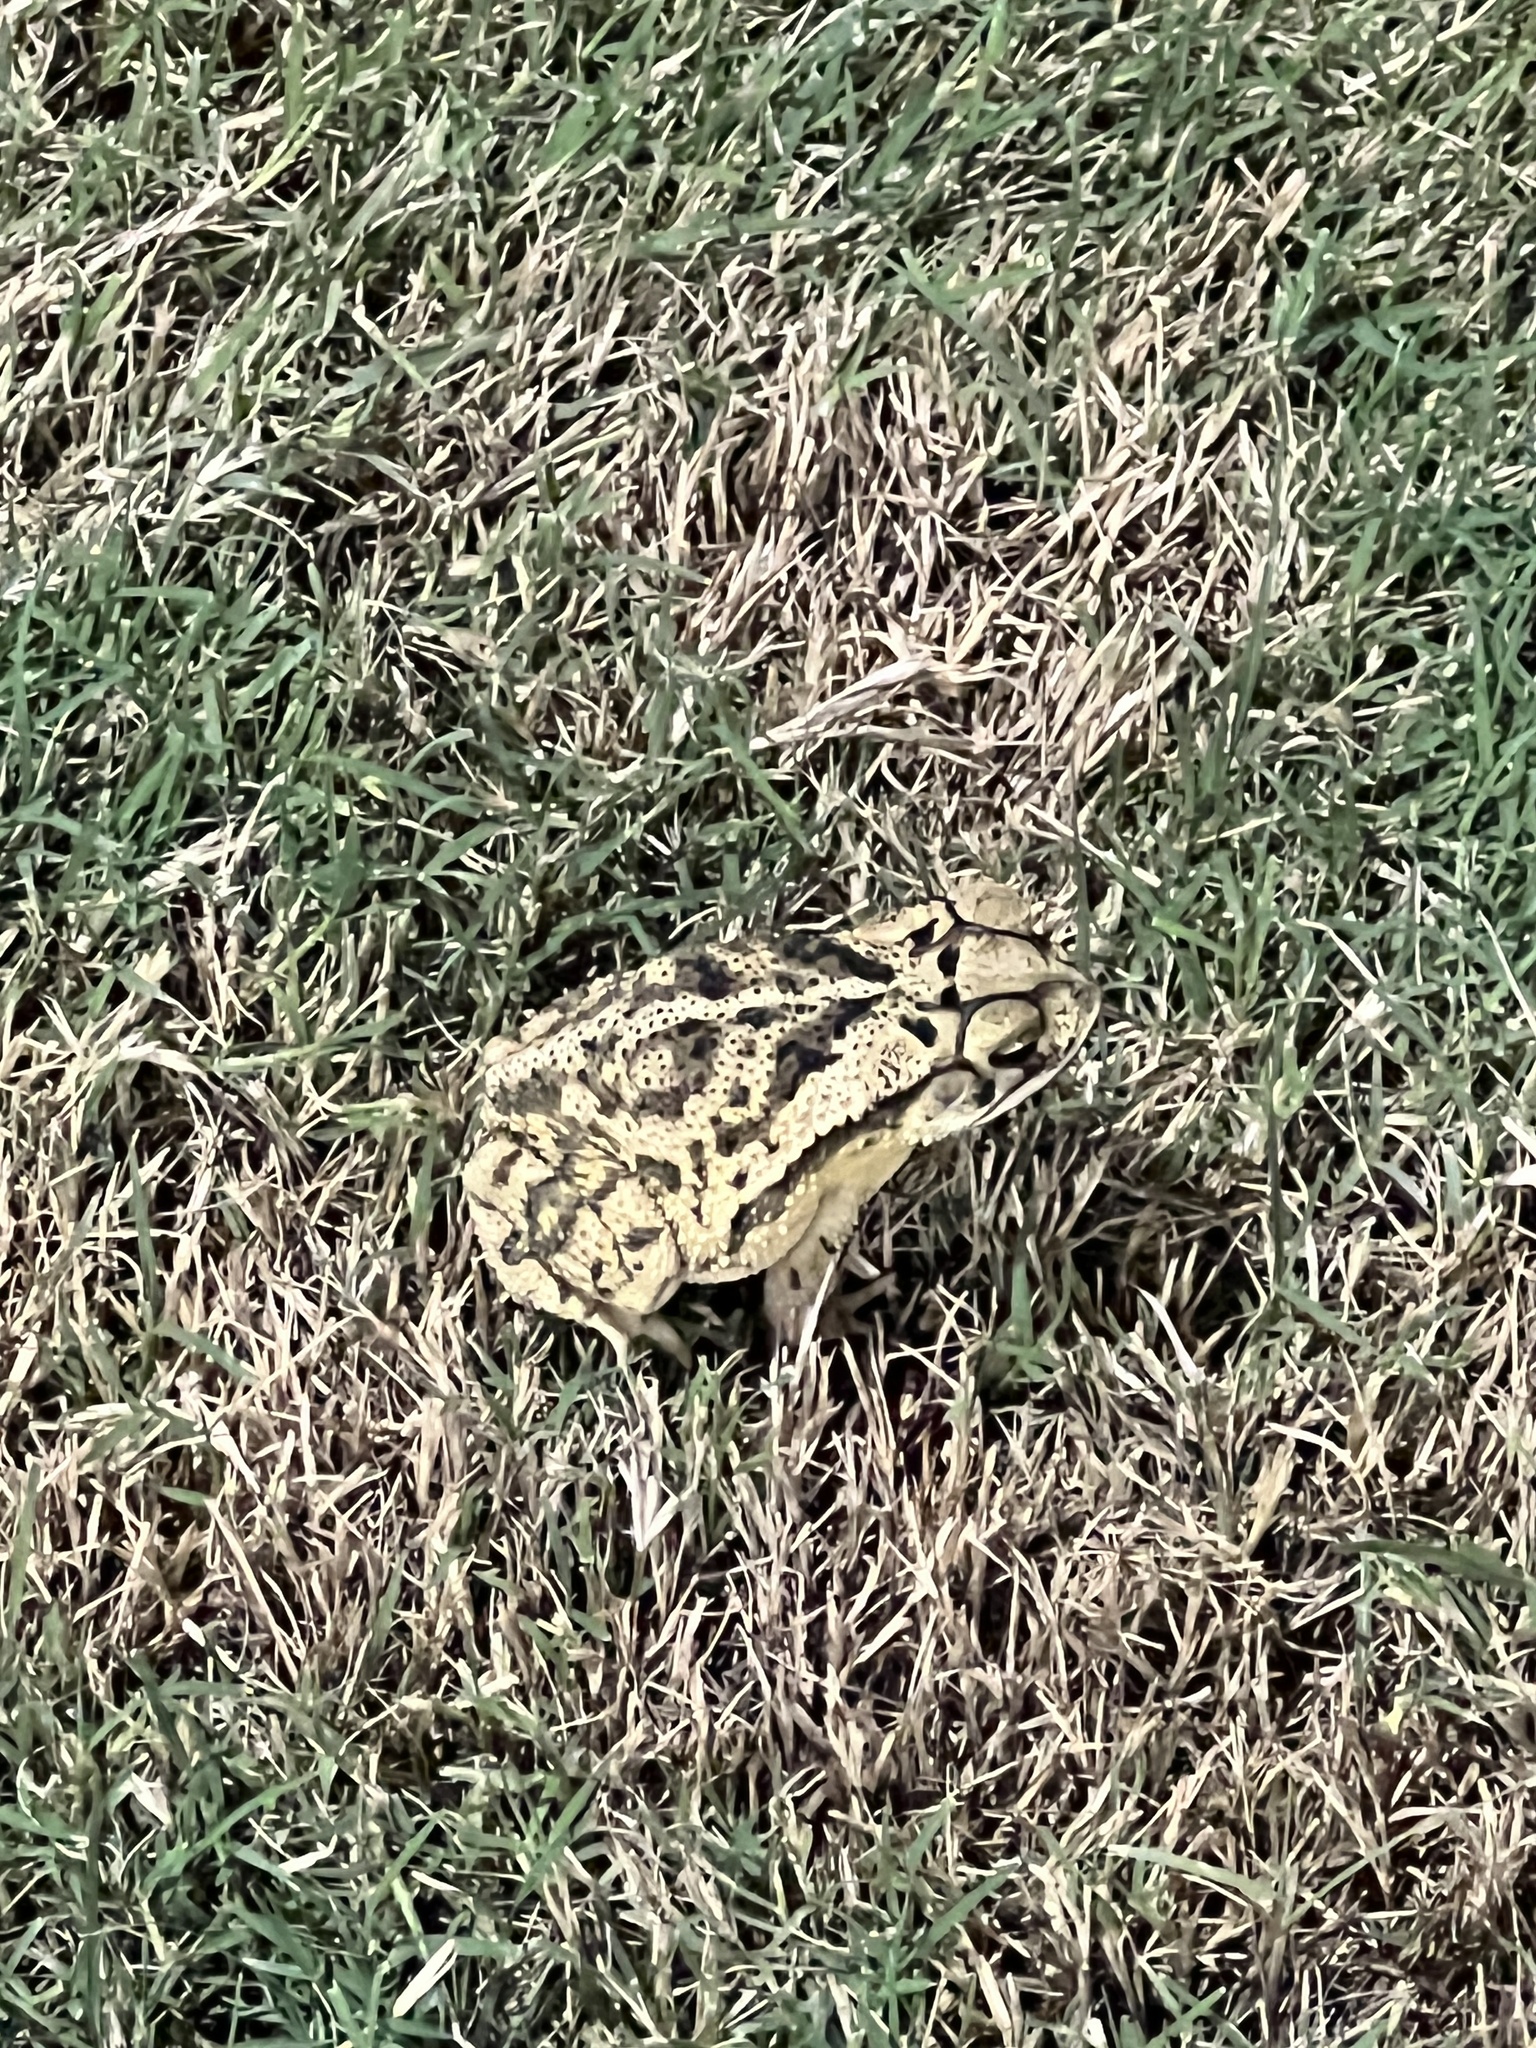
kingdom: Animalia
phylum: Chordata
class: Amphibia
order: Anura
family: Bufonidae
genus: Incilius
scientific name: Incilius nebulifer
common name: Gulf coast toad
